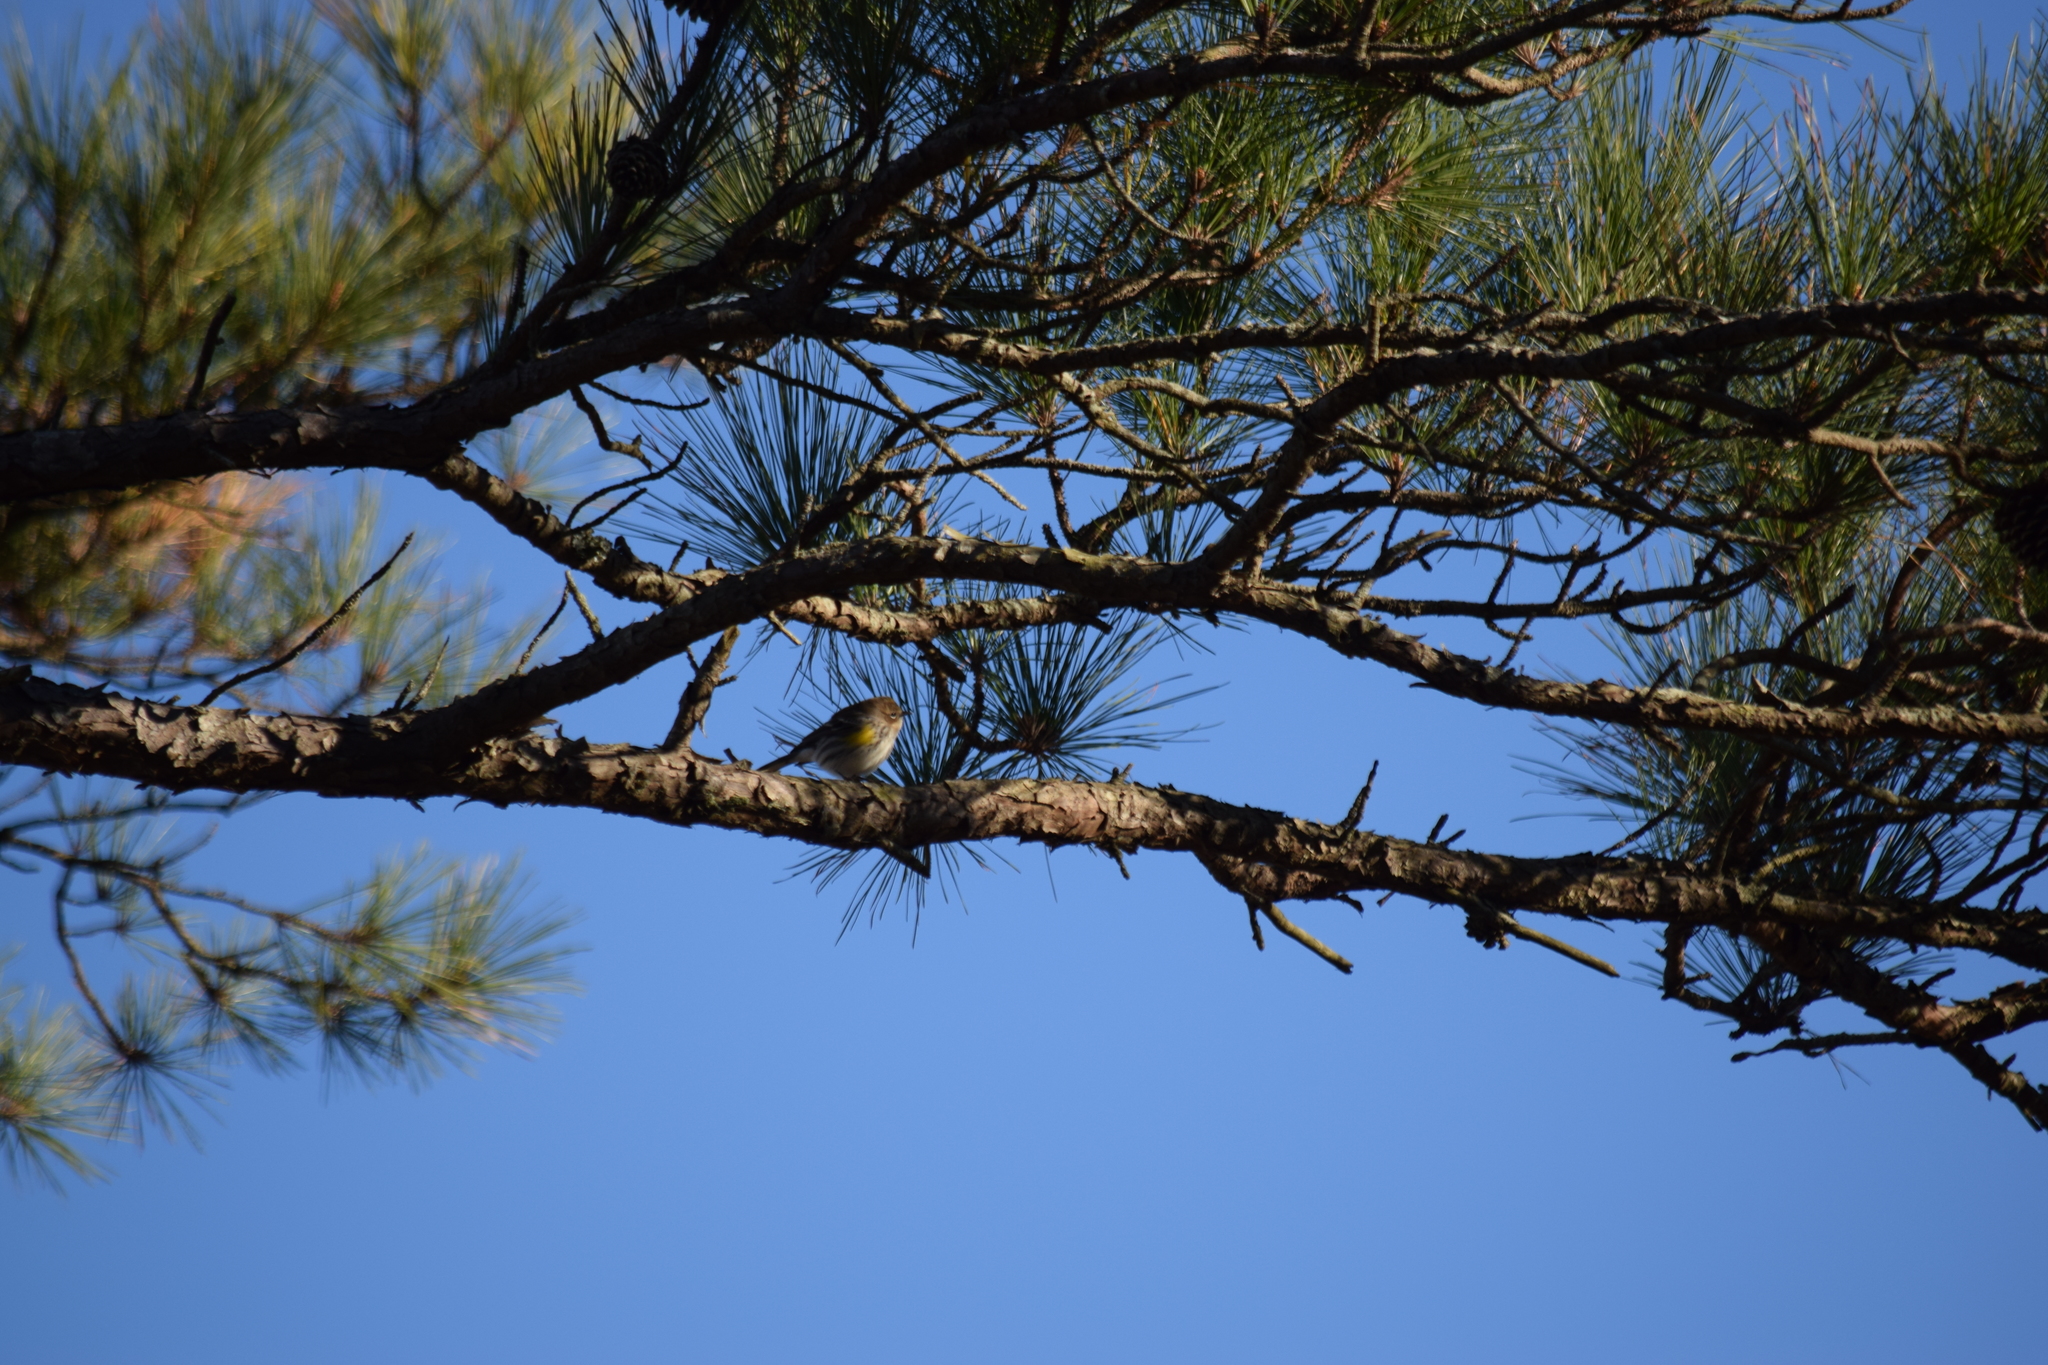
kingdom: Animalia
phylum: Chordata
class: Aves
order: Passeriformes
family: Parulidae
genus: Setophaga
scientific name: Setophaga coronata
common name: Myrtle warbler
